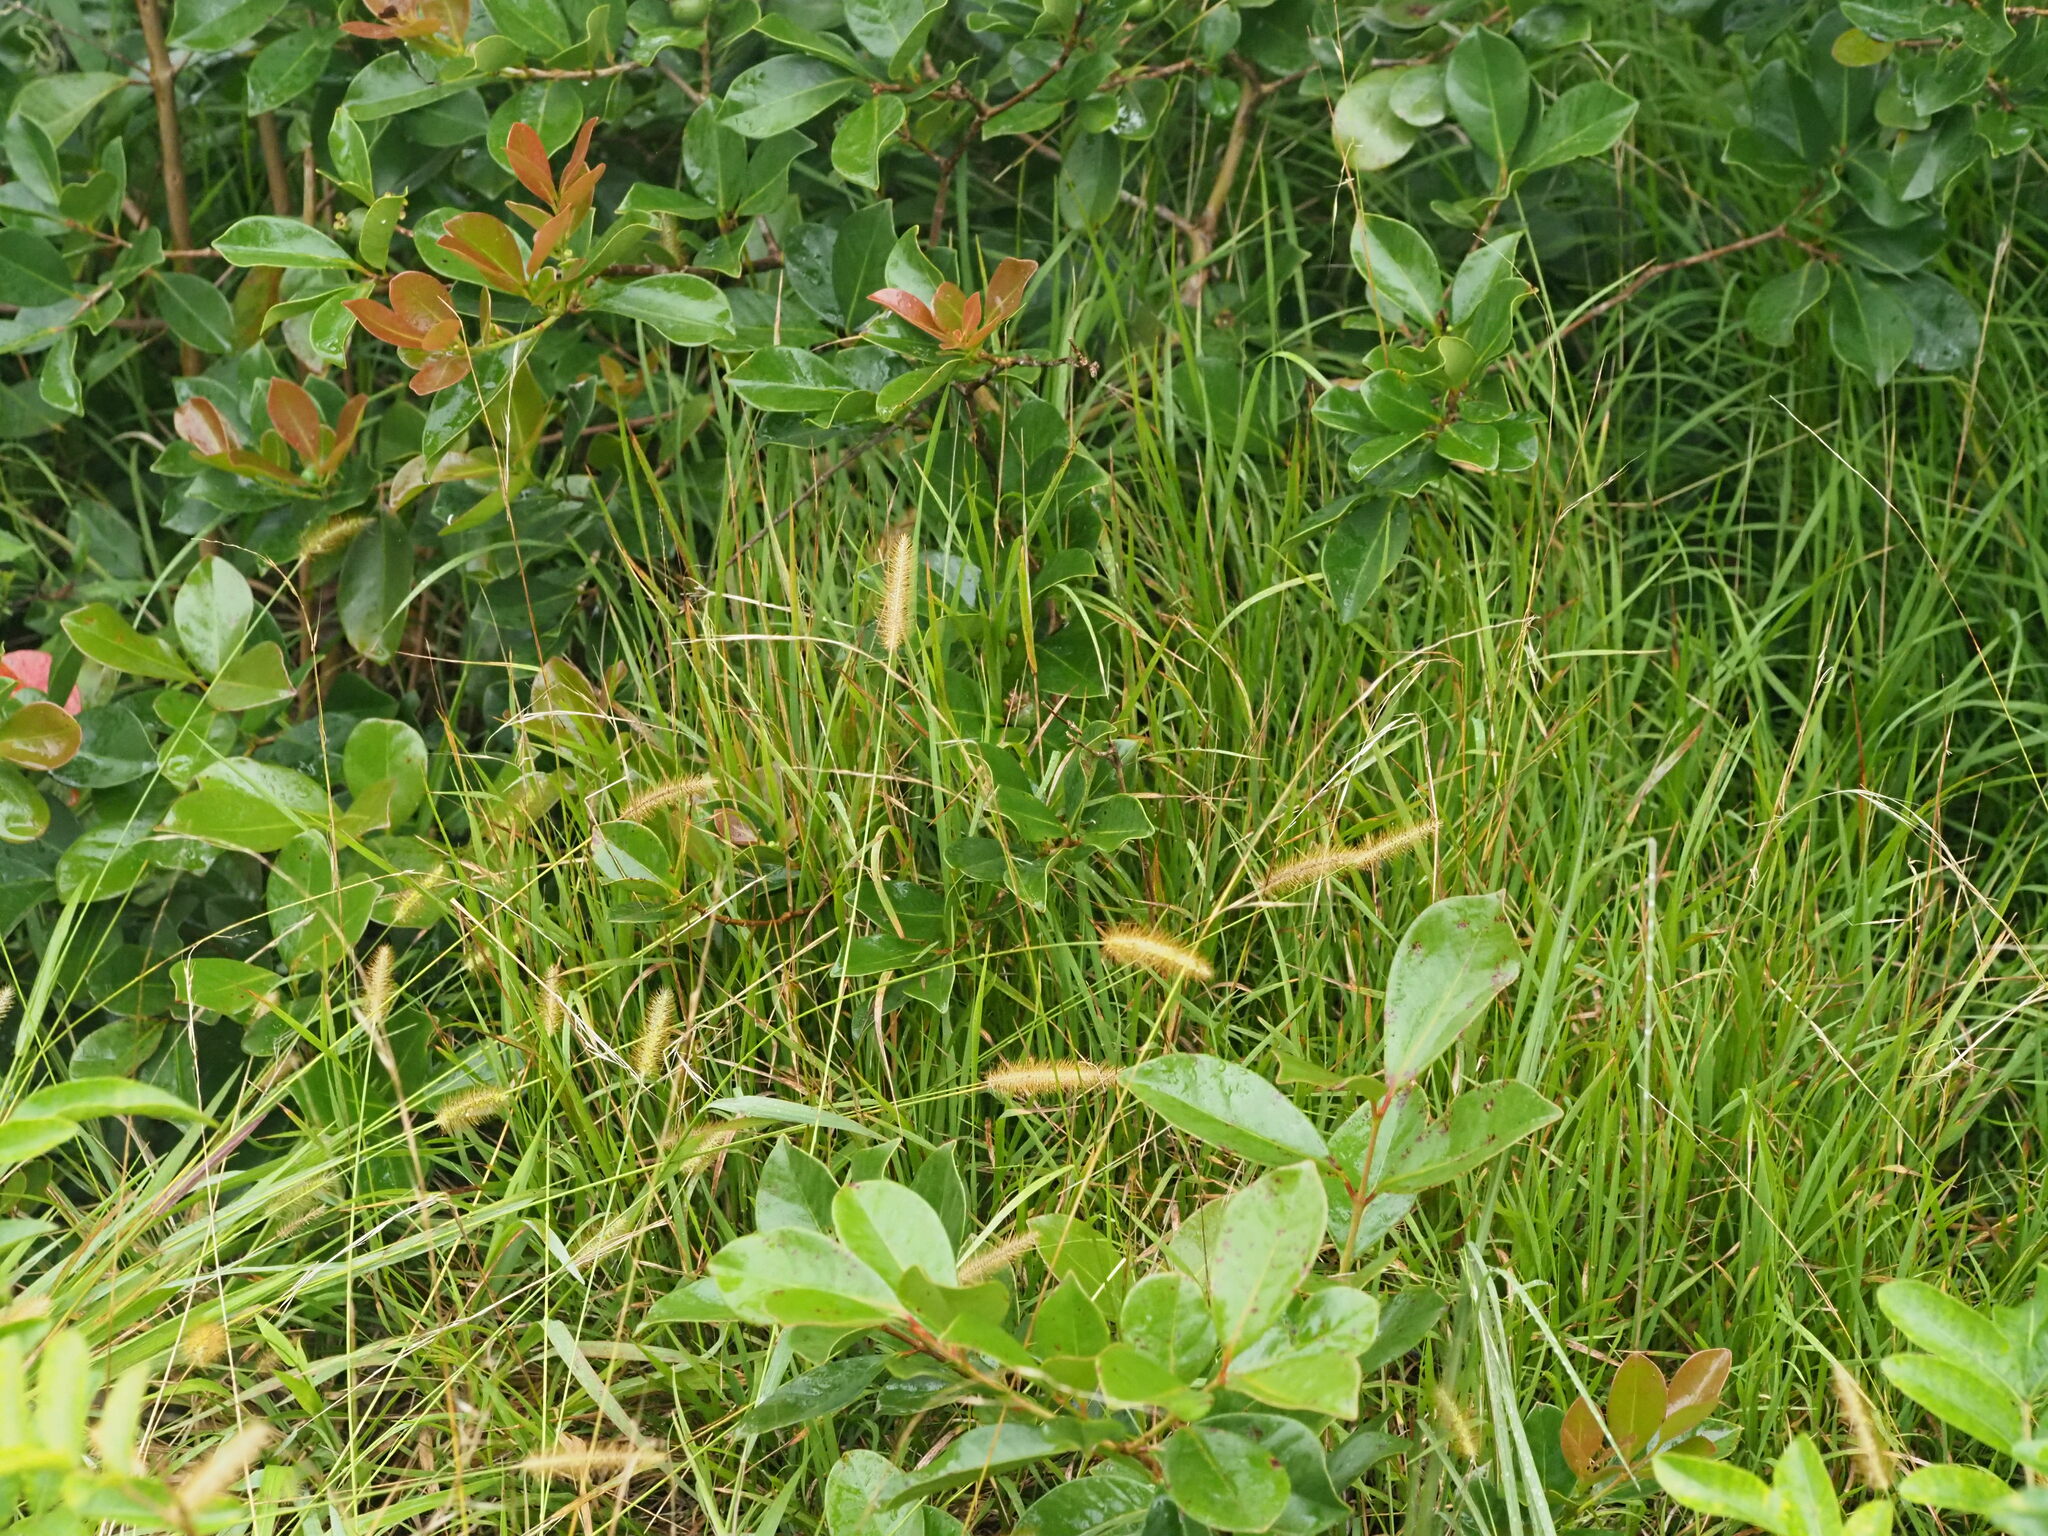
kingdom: Plantae
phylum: Tracheophyta
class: Liliopsida
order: Poales
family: Poaceae
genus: Setaria
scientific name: Setaria parviflora
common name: Knotroot bristle-grass
